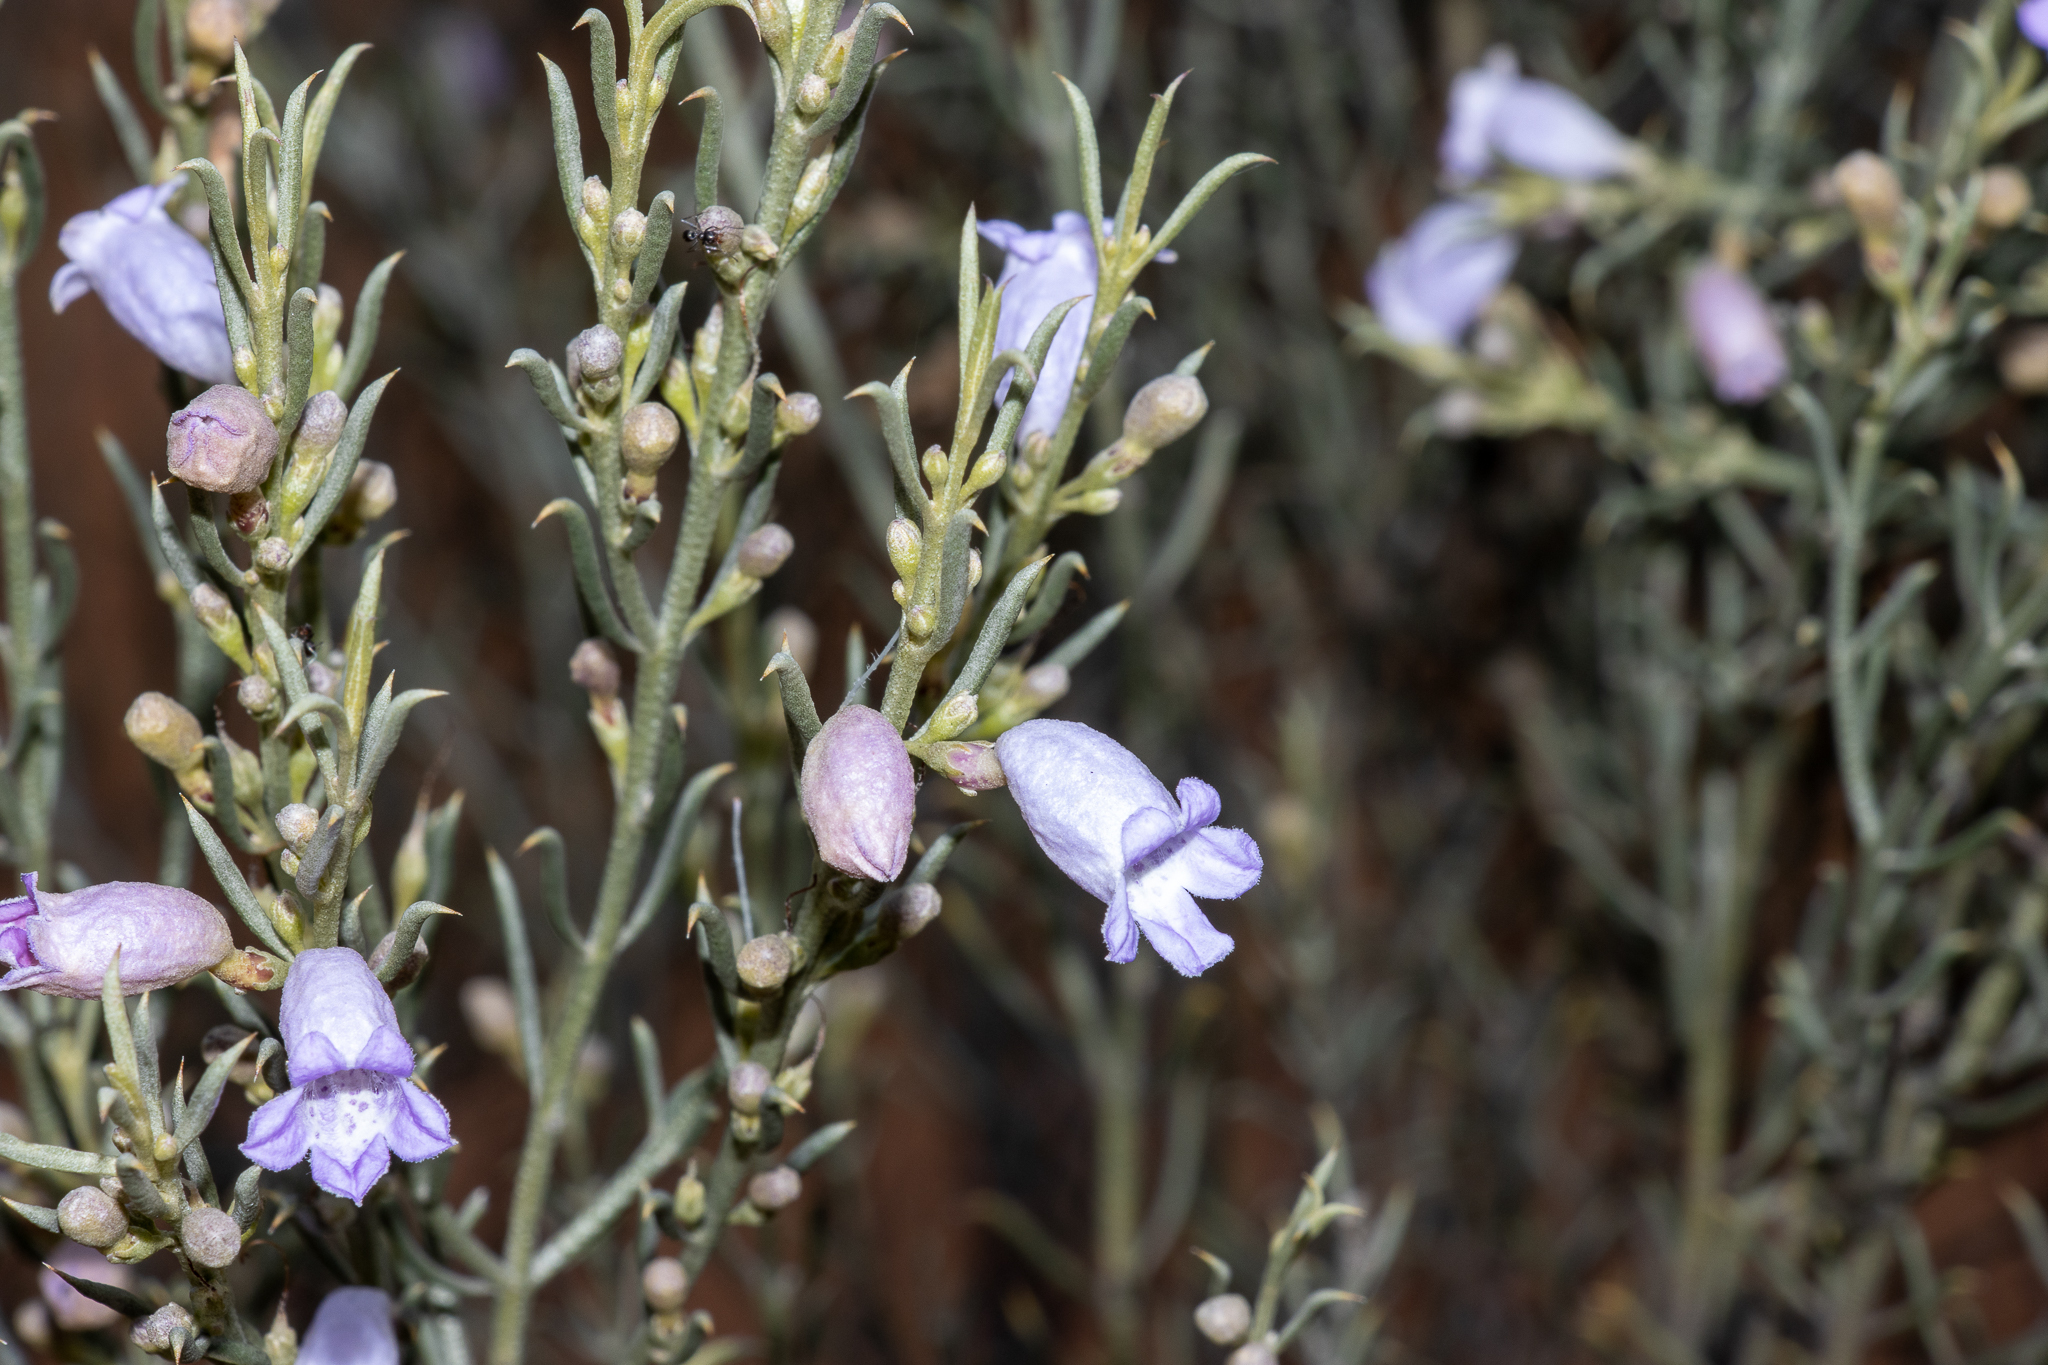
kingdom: Plantae
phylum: Tracheophyta
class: Magnoliopsida
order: Lamiales
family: Scrophulariaceae
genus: Eremophila
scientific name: Eremophila scoparia
